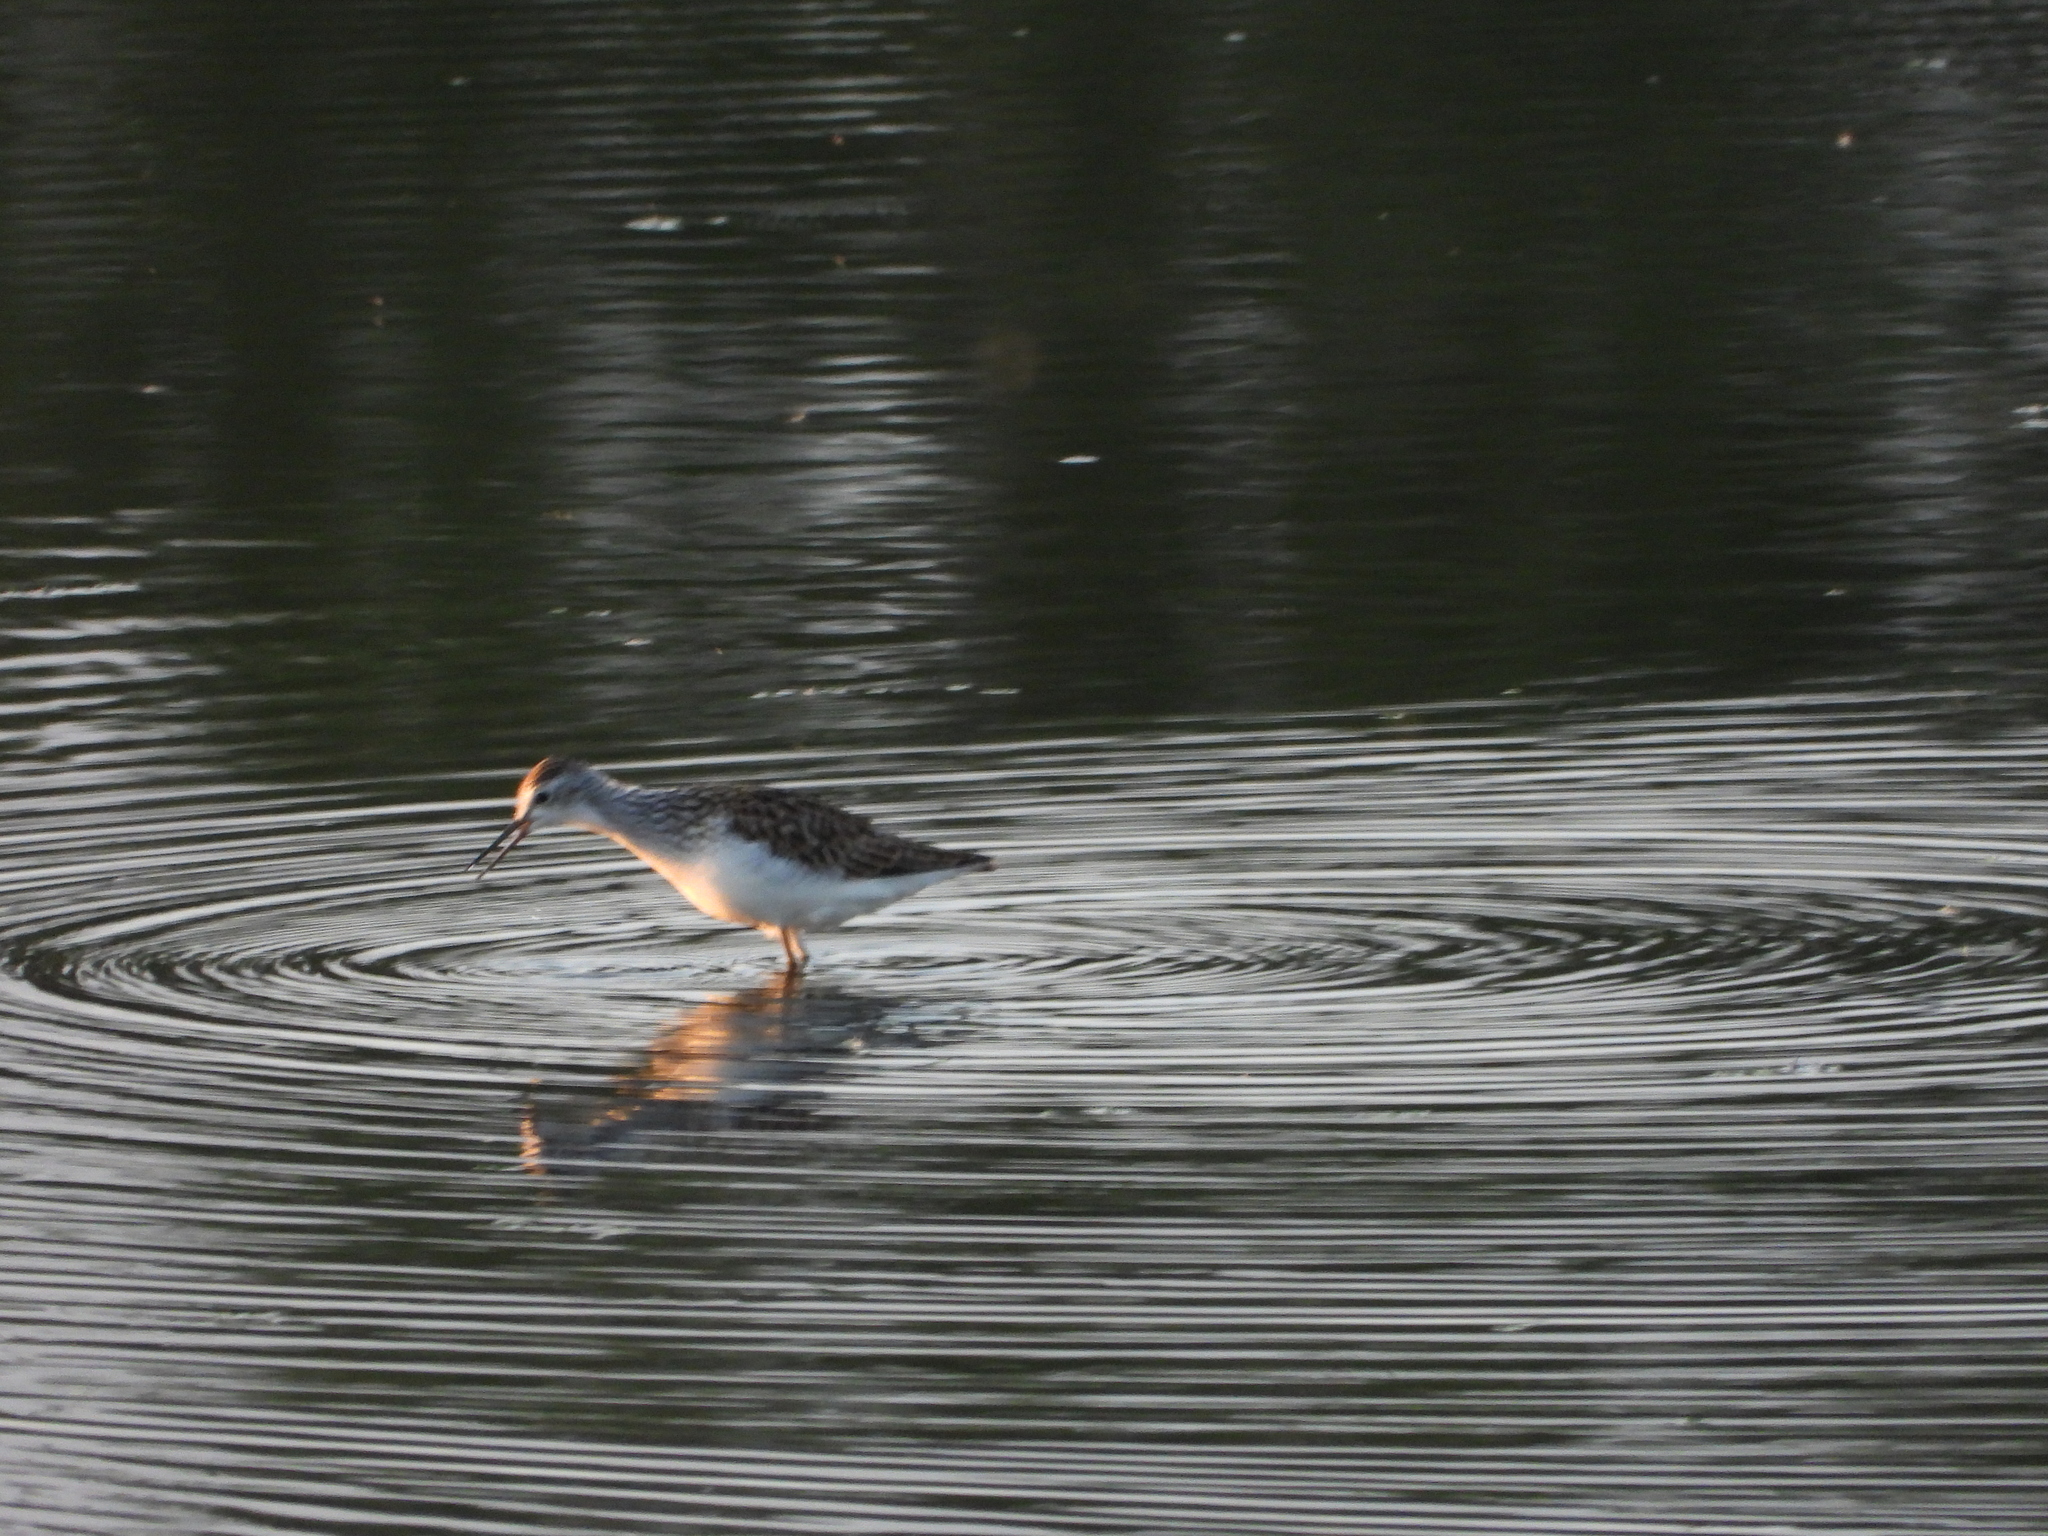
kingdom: Animalia
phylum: Chordata
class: Aves
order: Charadriiformes
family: Scolopacidae
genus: Tringa
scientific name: Tringa stagnatilis
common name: Marsh sandpiper
